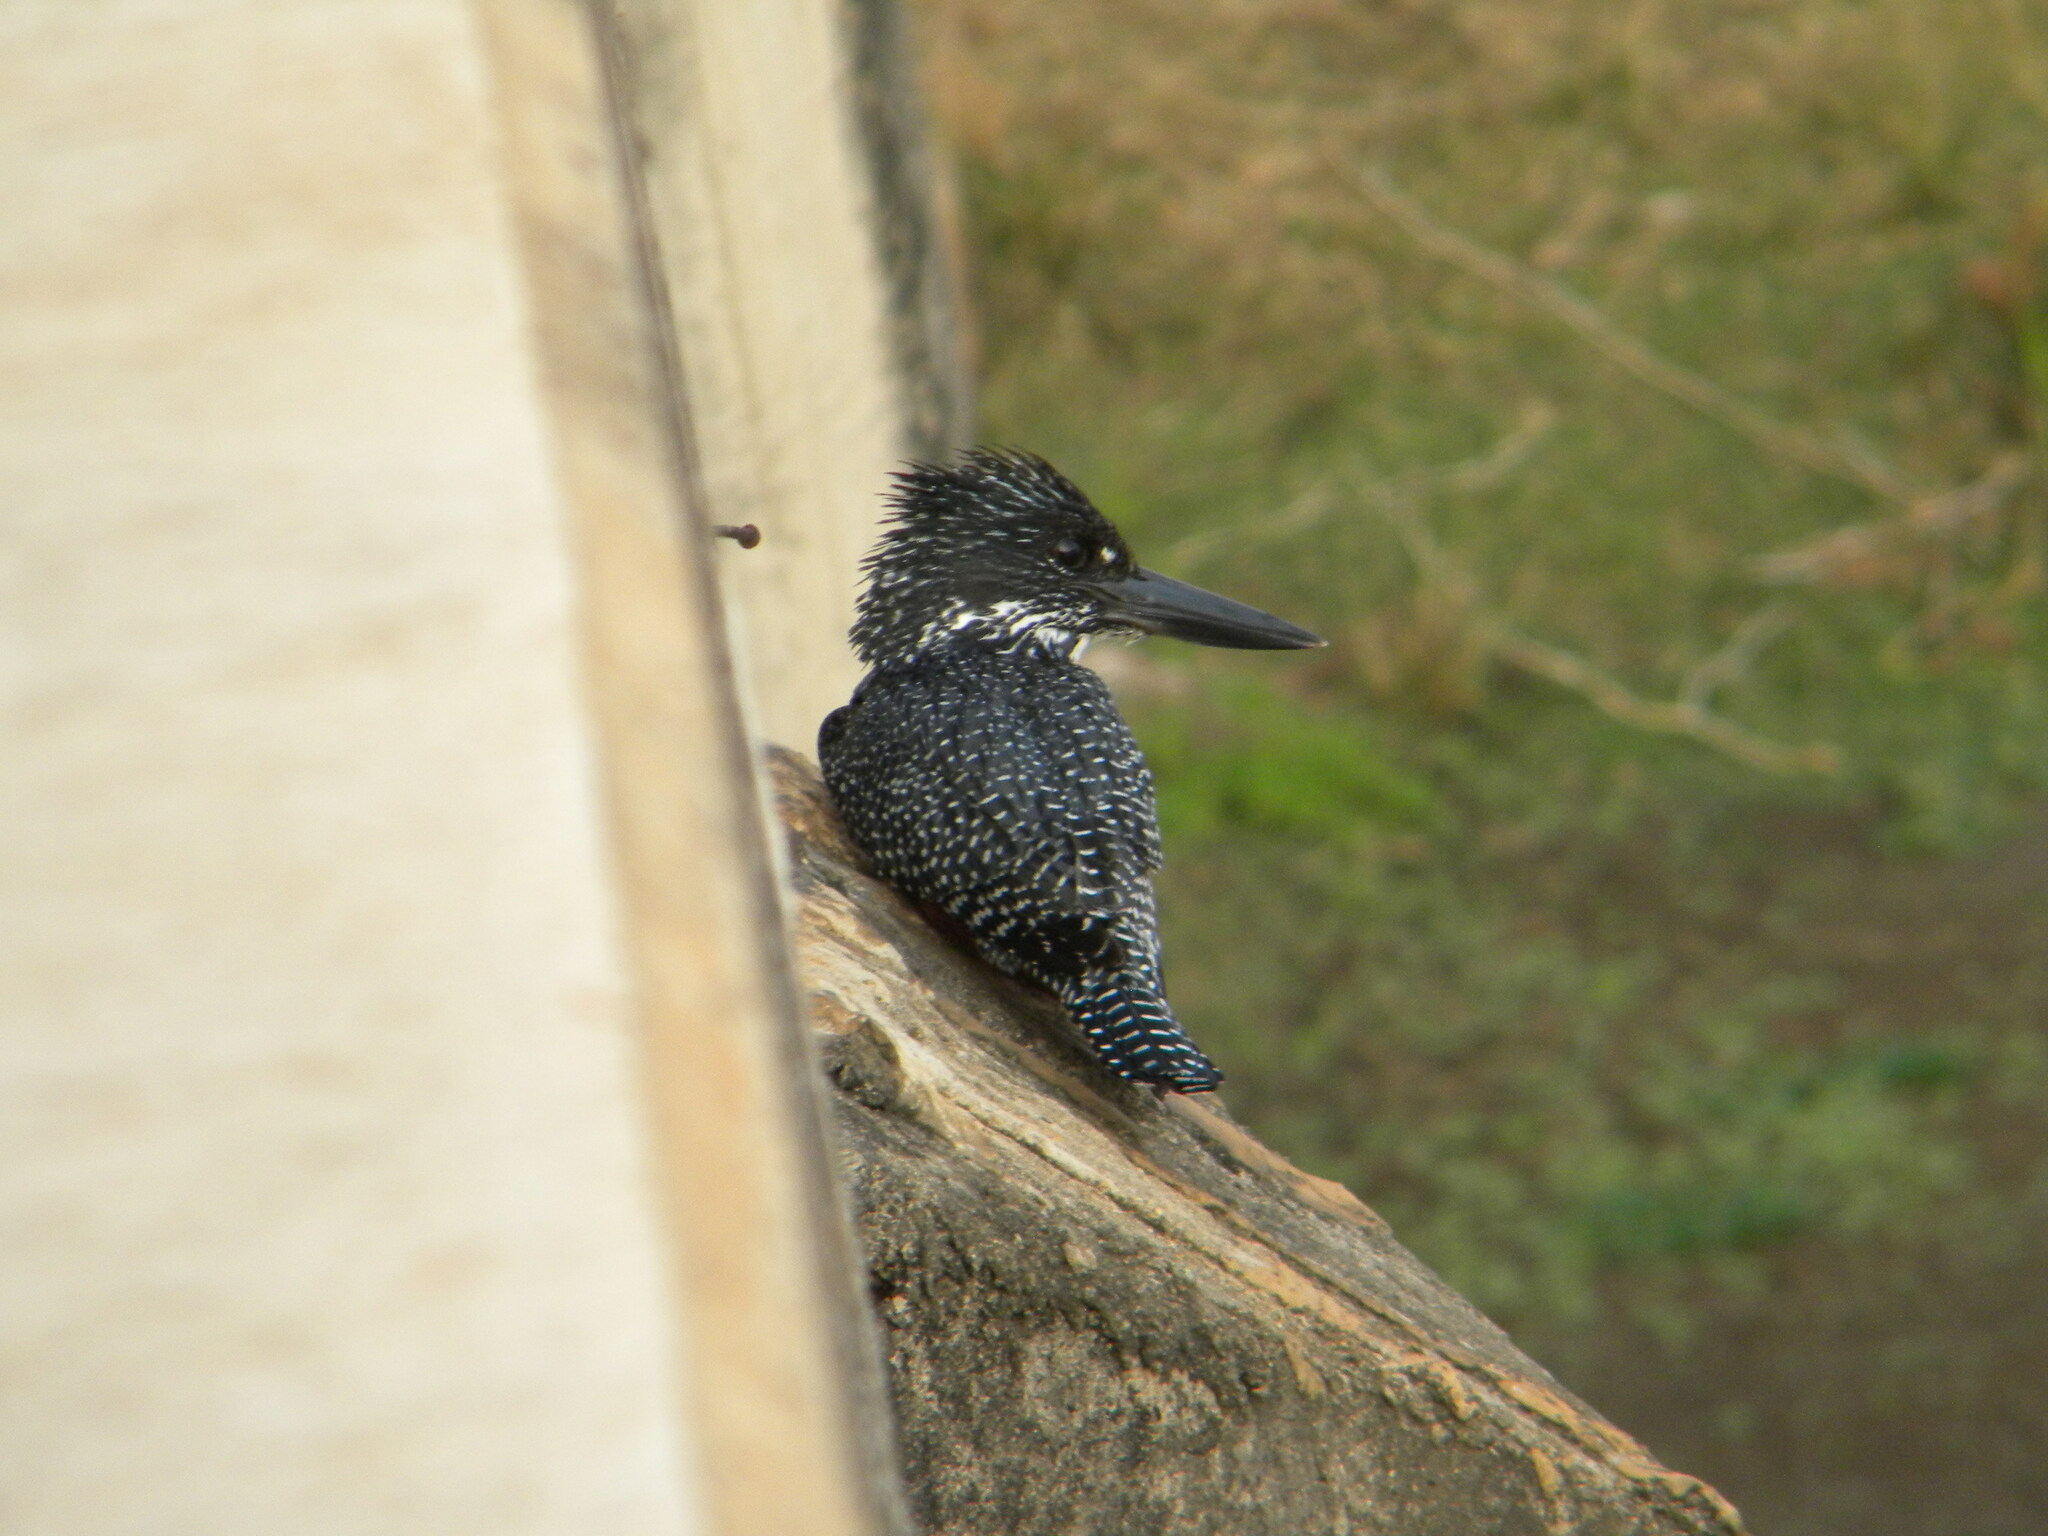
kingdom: Animalia
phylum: Chordata
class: Aves
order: Coraciiformes
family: Alcedinidae
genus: Megaceryle
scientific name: Megaceryle maxima
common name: Giant kingfisher
